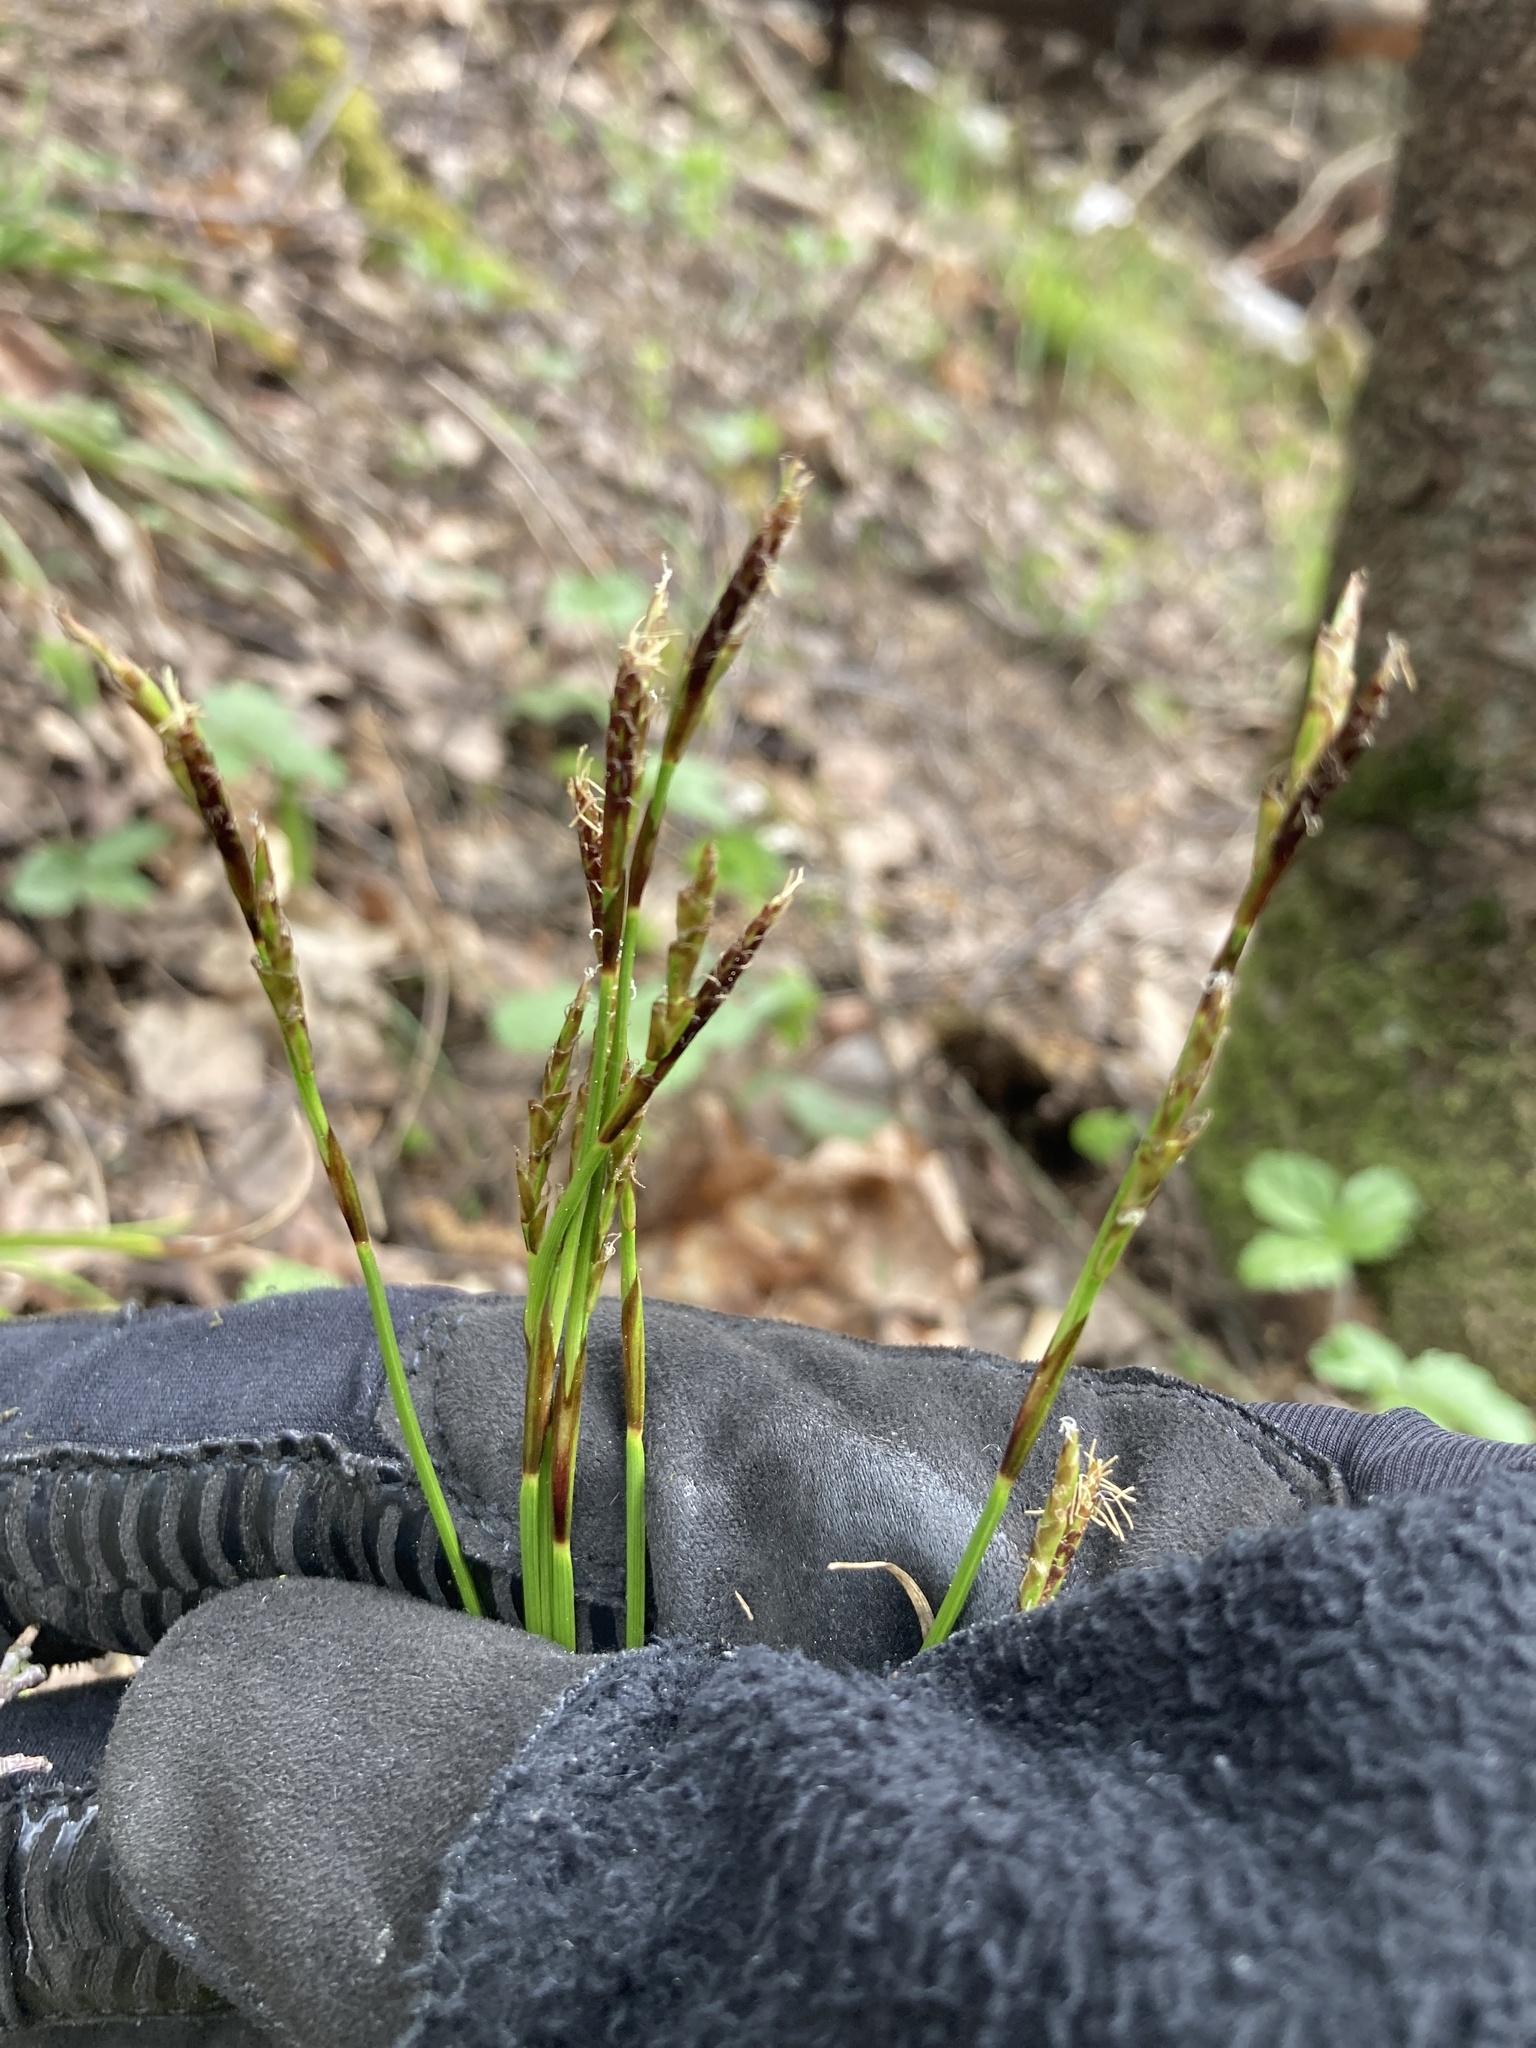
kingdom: Plantae
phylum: Tracheophyta
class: Liliopsida
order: Poales
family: Cyperaceae
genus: Carex
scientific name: Carex digitata
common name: Fingered sedge
